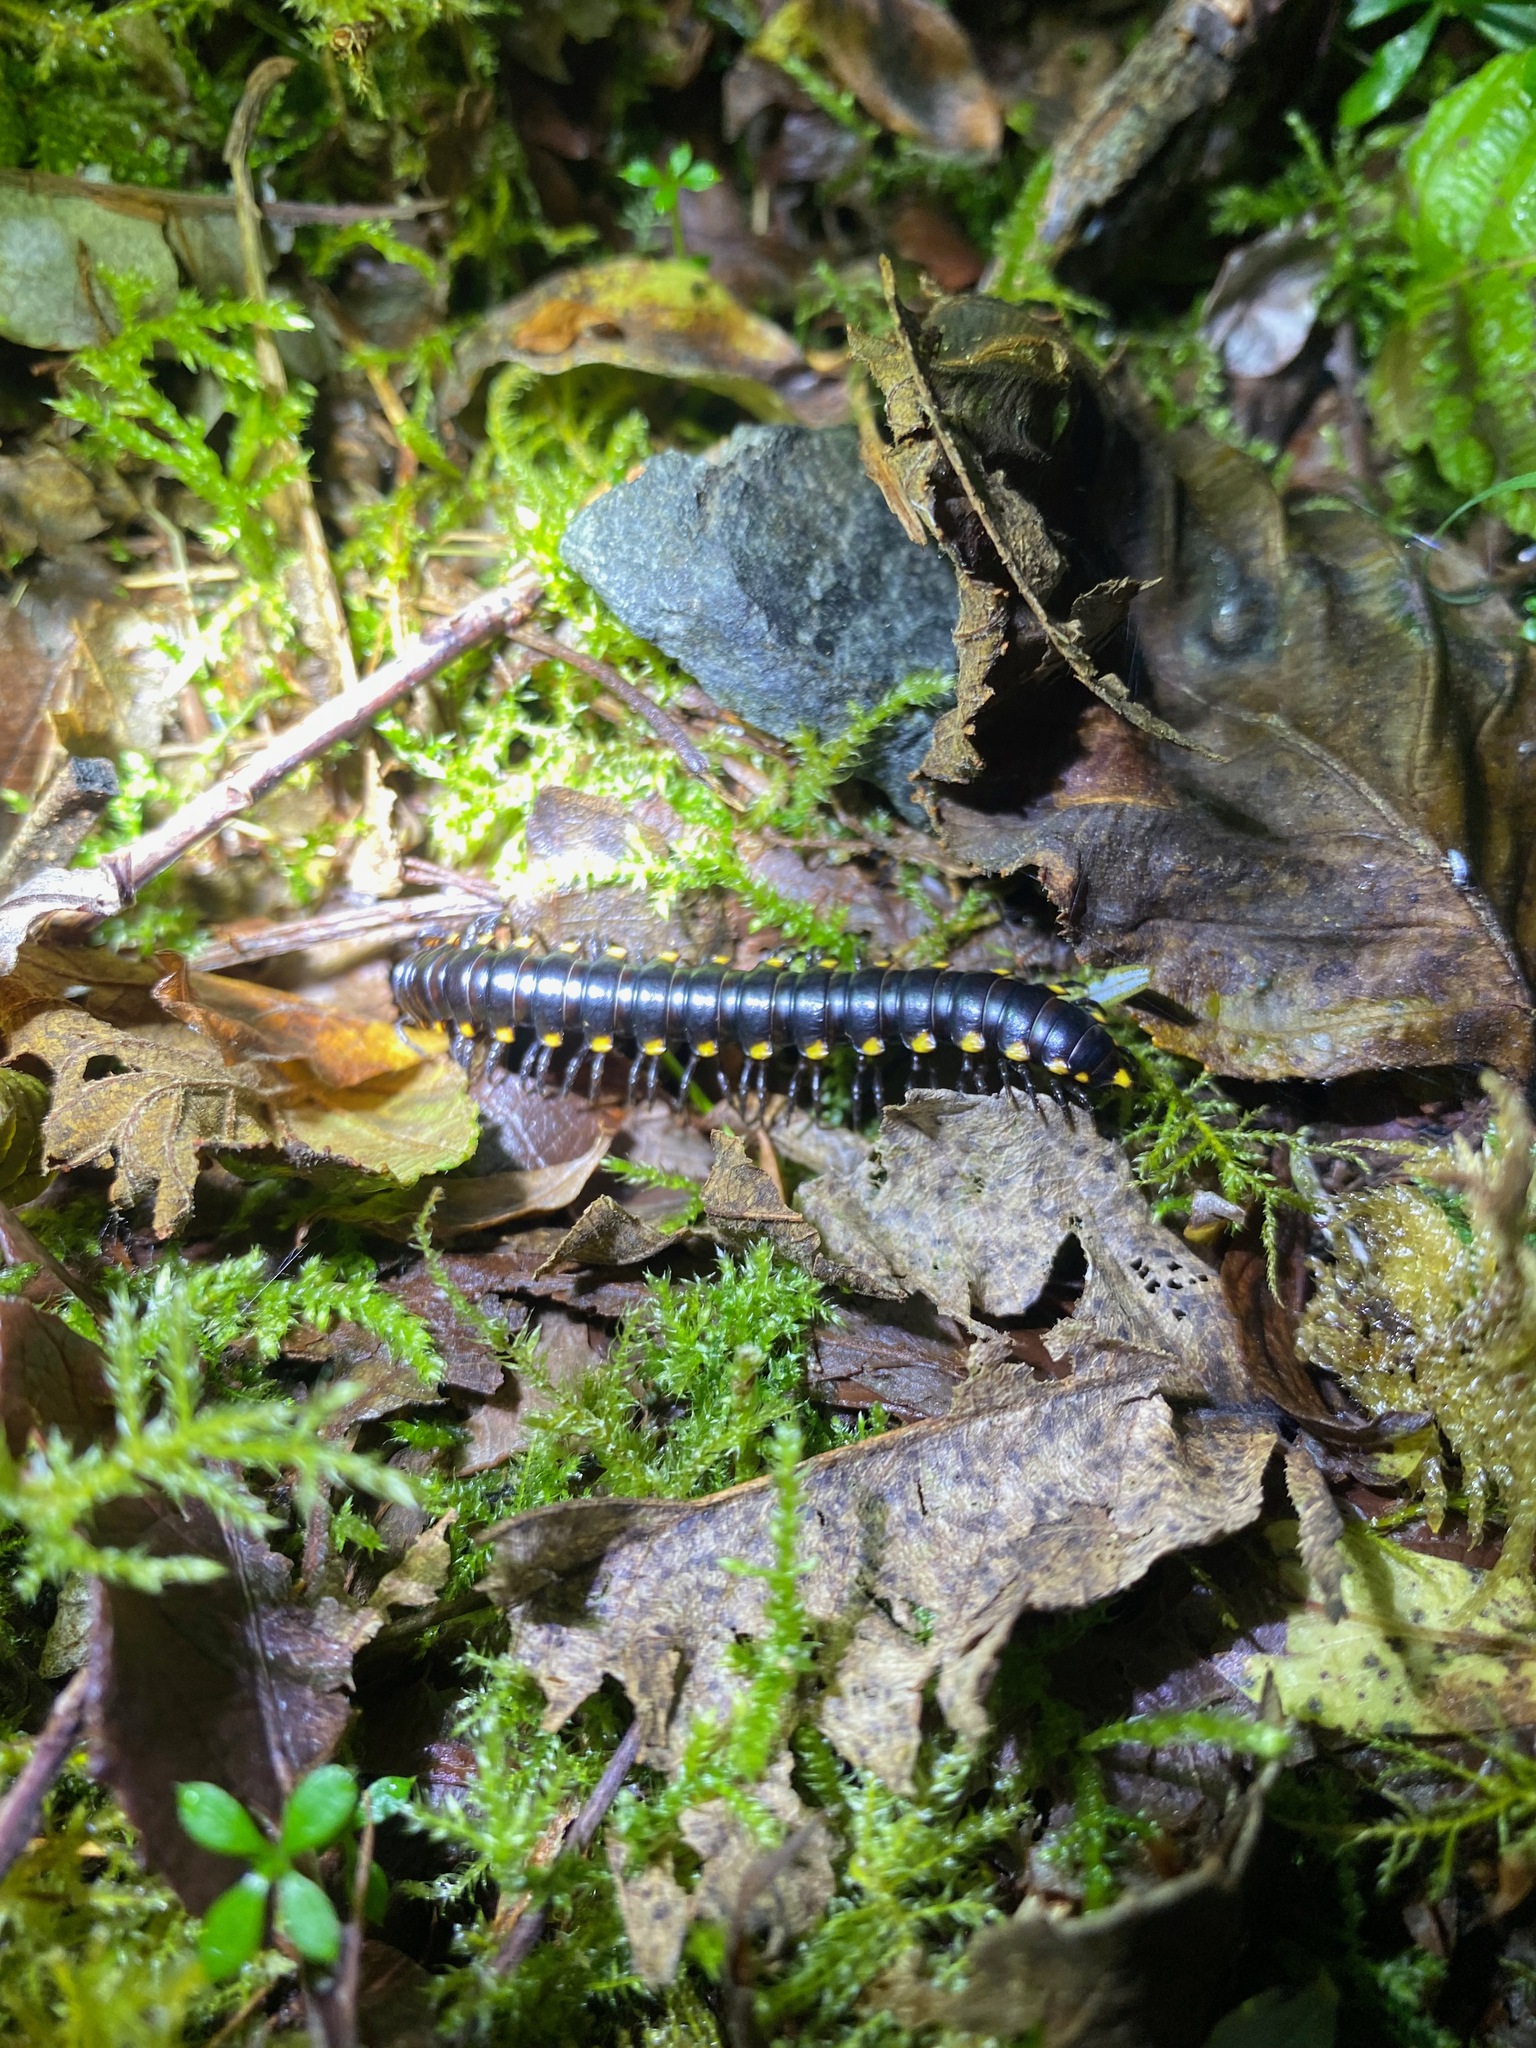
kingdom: Animalia
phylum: Arthropoda
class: Diplopoda
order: Polydesmida
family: Xystodesmidae
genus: Harpaphe
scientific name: Harpaphe haydeniana
